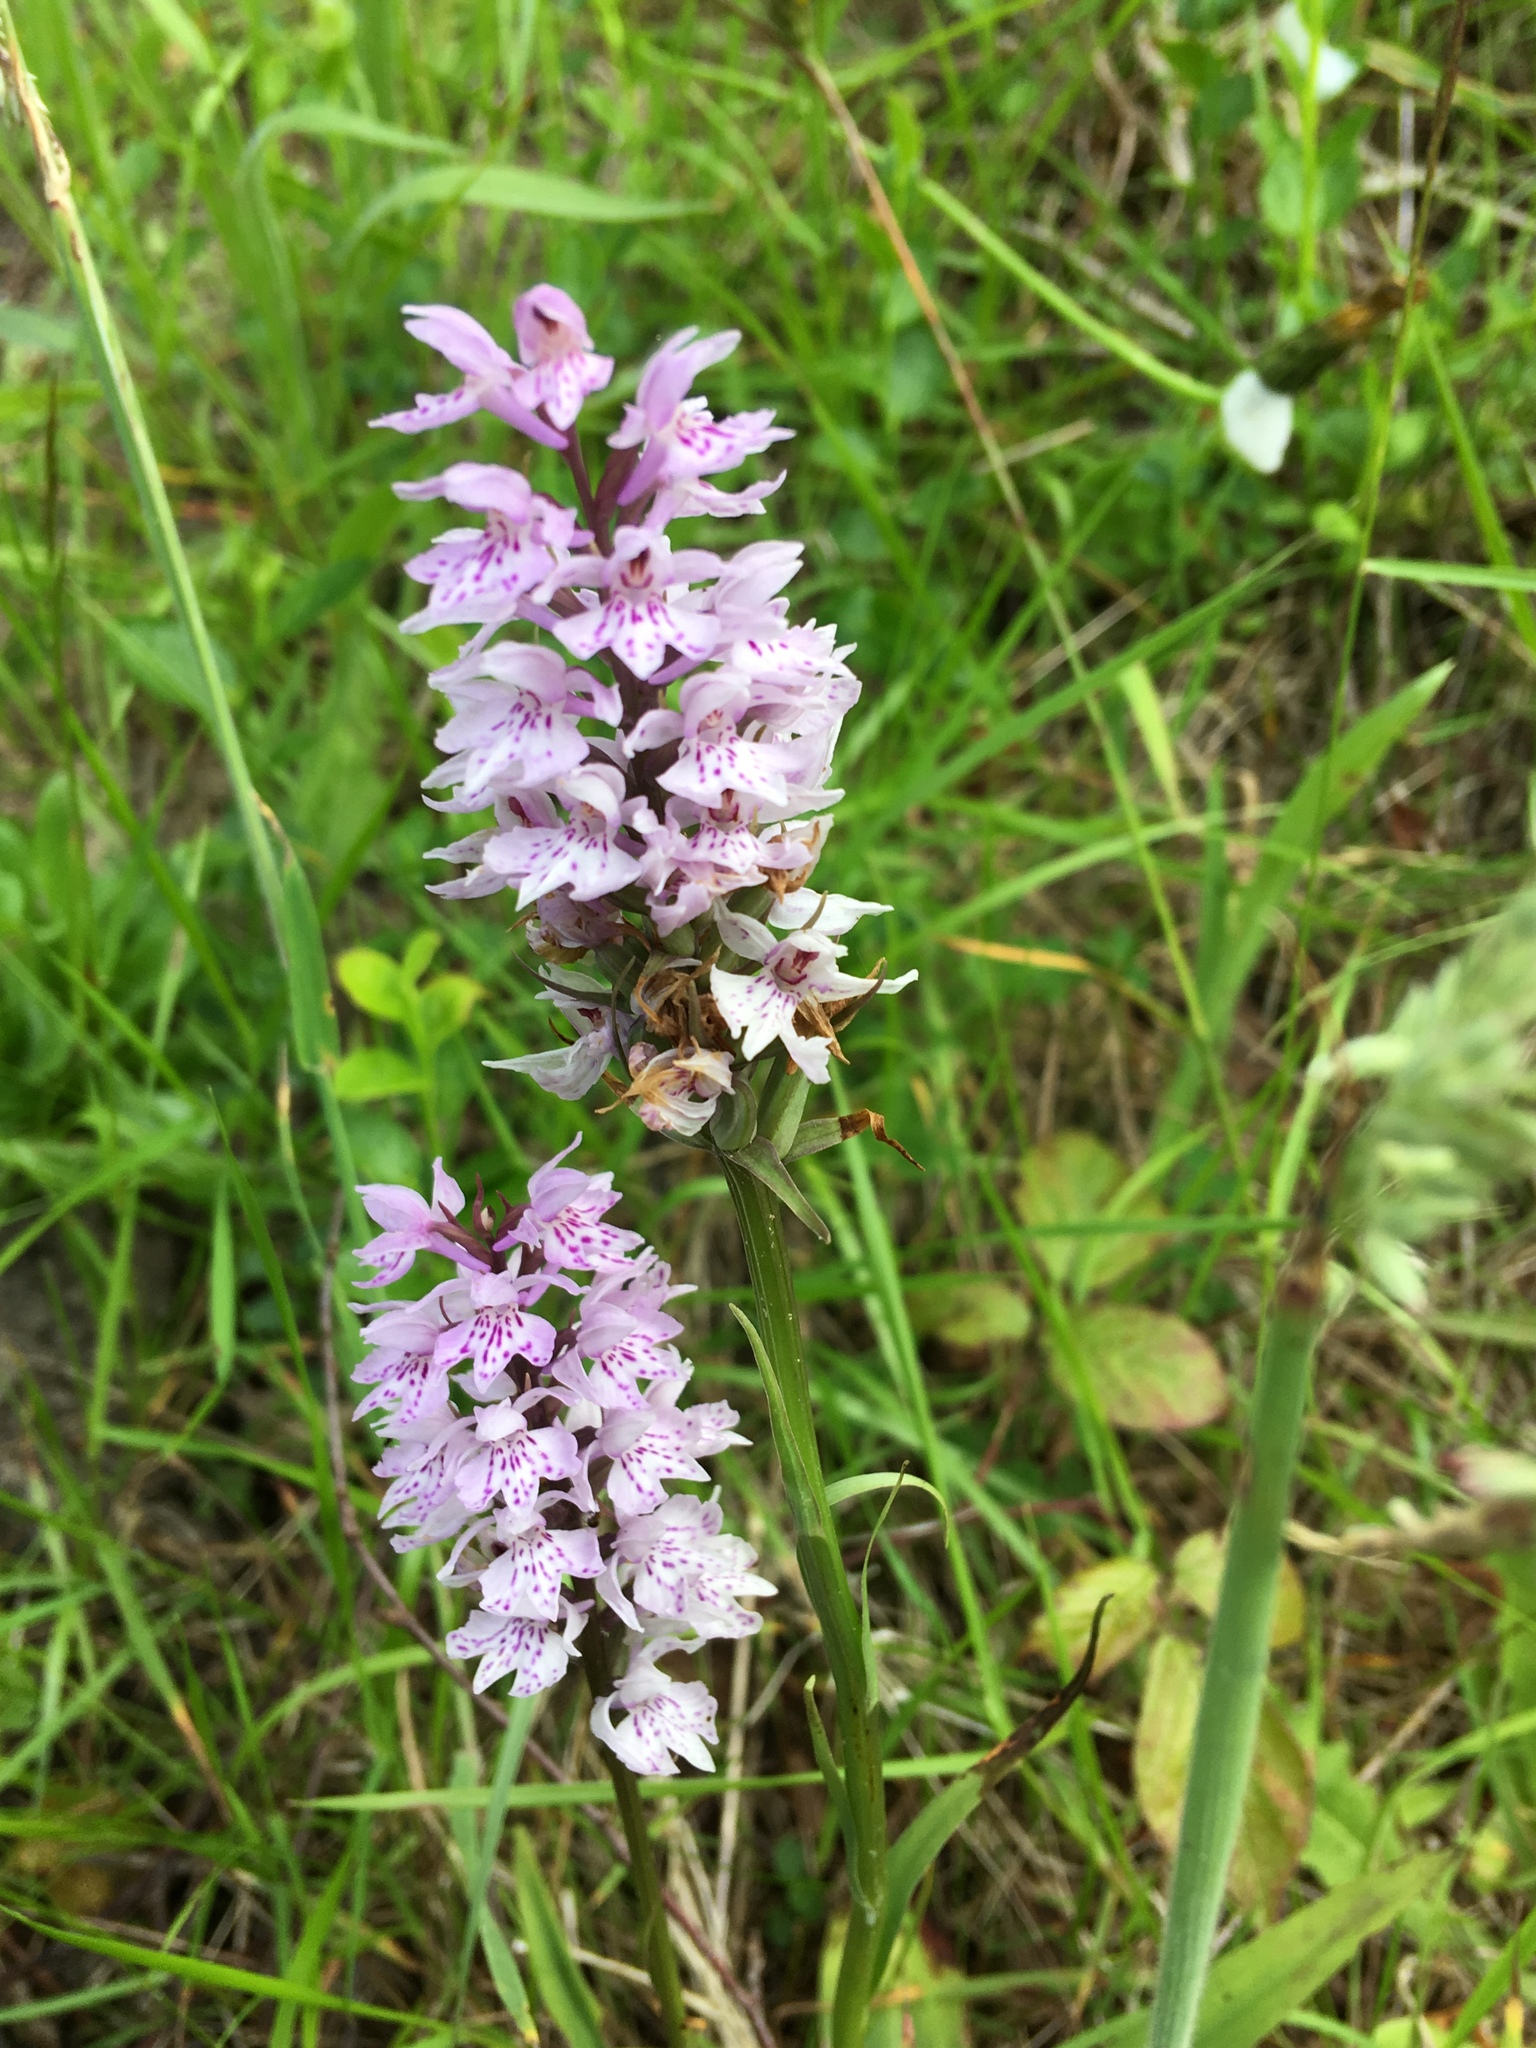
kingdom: Plantae
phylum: Tracheophyta
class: Liliopsida
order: Asparagales
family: Orchidaceae
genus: Dactylorhiza
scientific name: Dactylorhiza maculata
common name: Heath spotted-orchid
